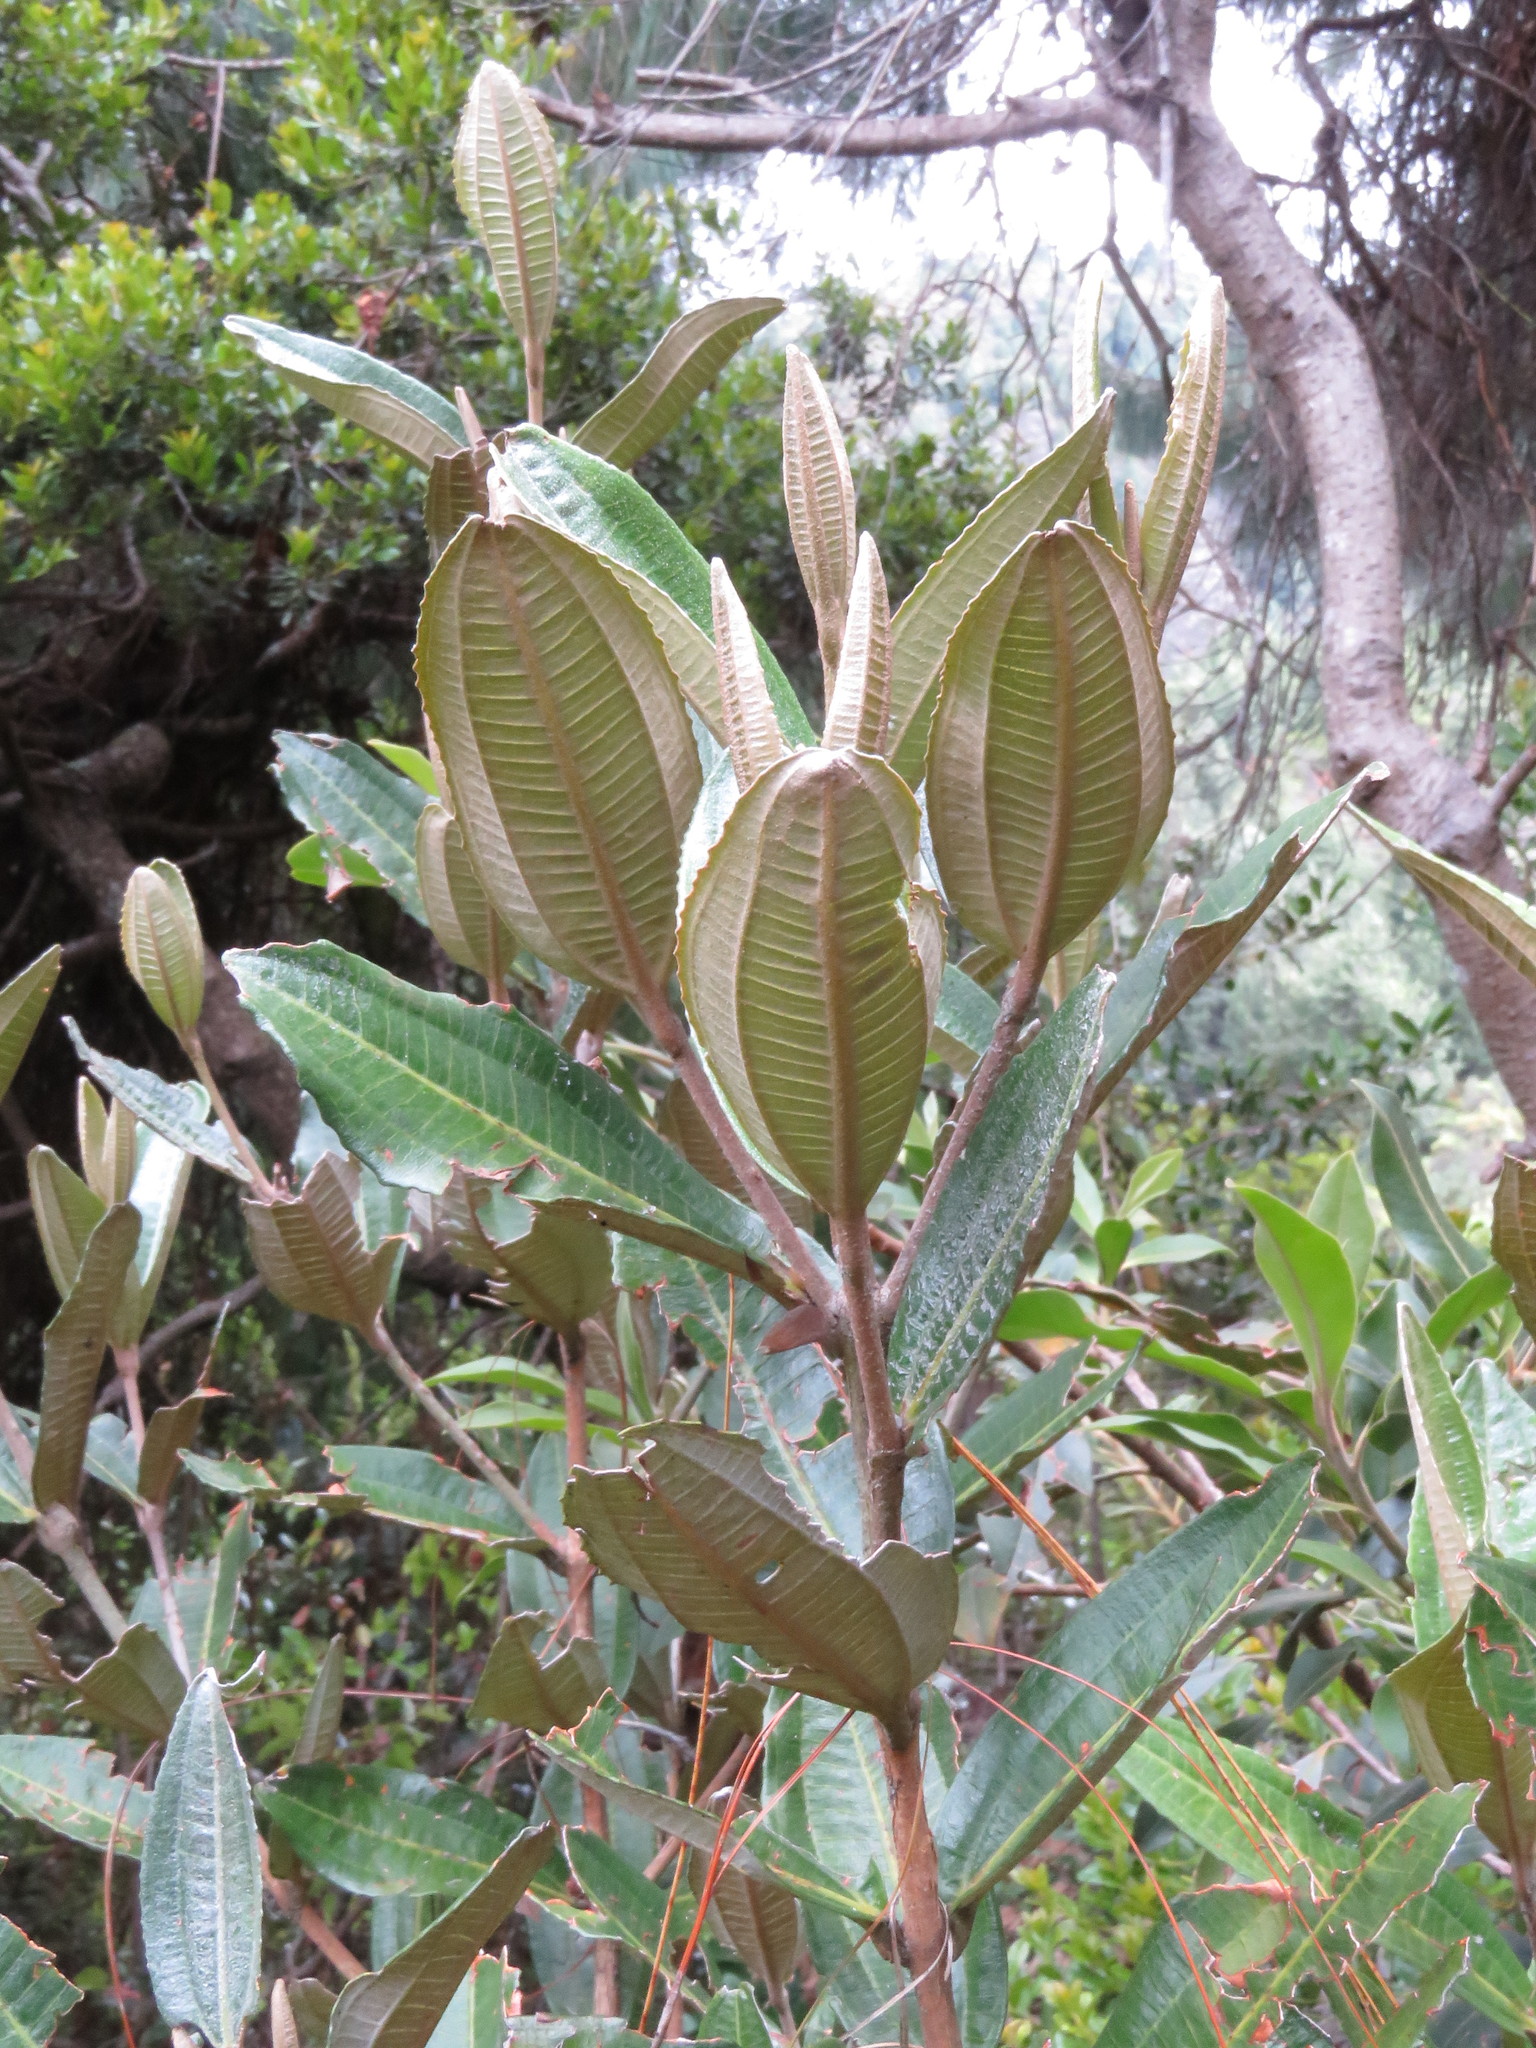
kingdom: Plantae
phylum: Tracheophyta
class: Magnoliopsida
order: Myrtales
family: Melastomataceae
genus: Miconia
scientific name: Miconia squamulosa
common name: Squamulose maya
